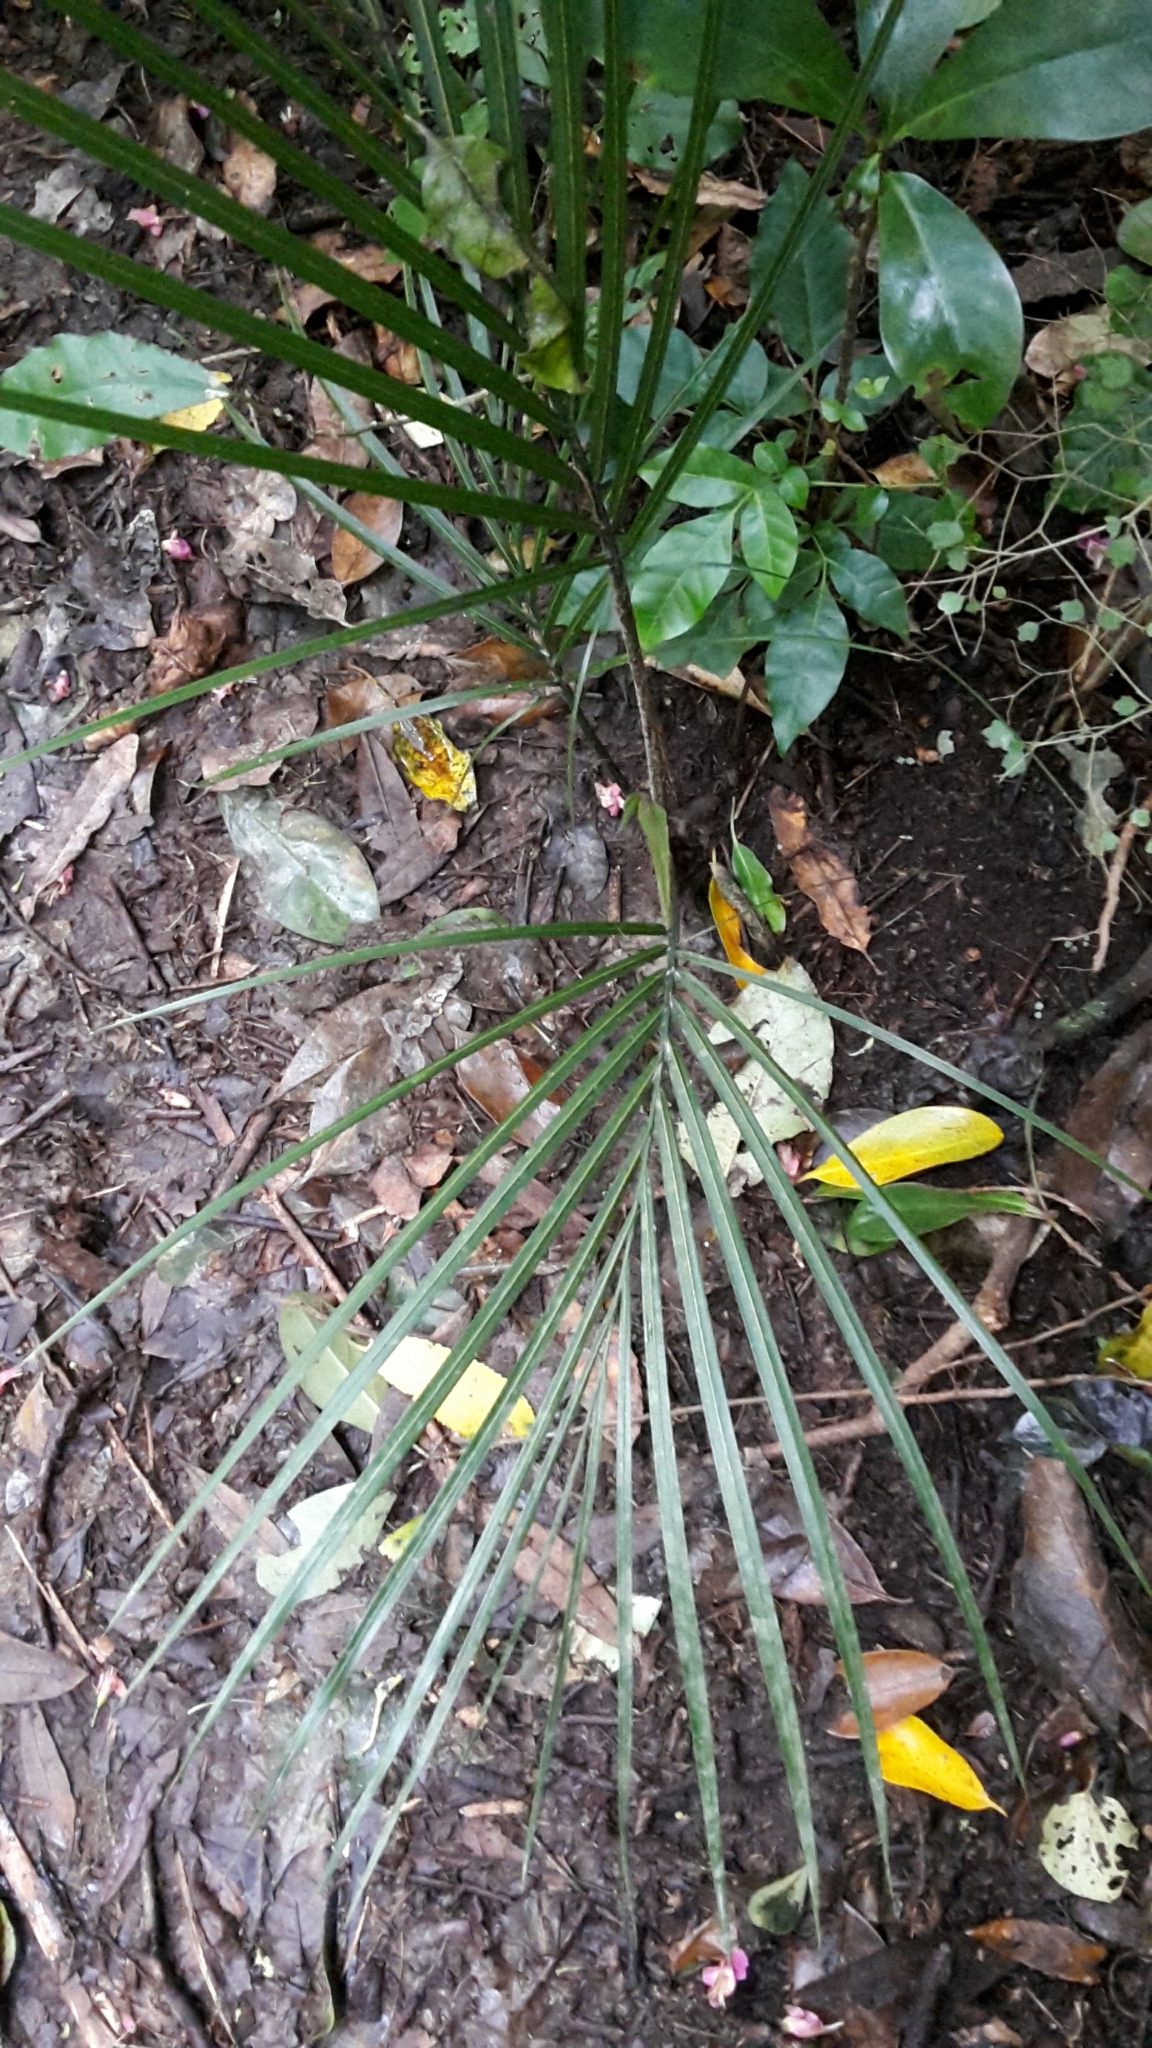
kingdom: Plantae
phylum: Tracheophyta
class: Liliopsida
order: Arecales
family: Arecaceae
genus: Rhopalostylis
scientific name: Rhopalostylis sapida
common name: Feather-duster palm
